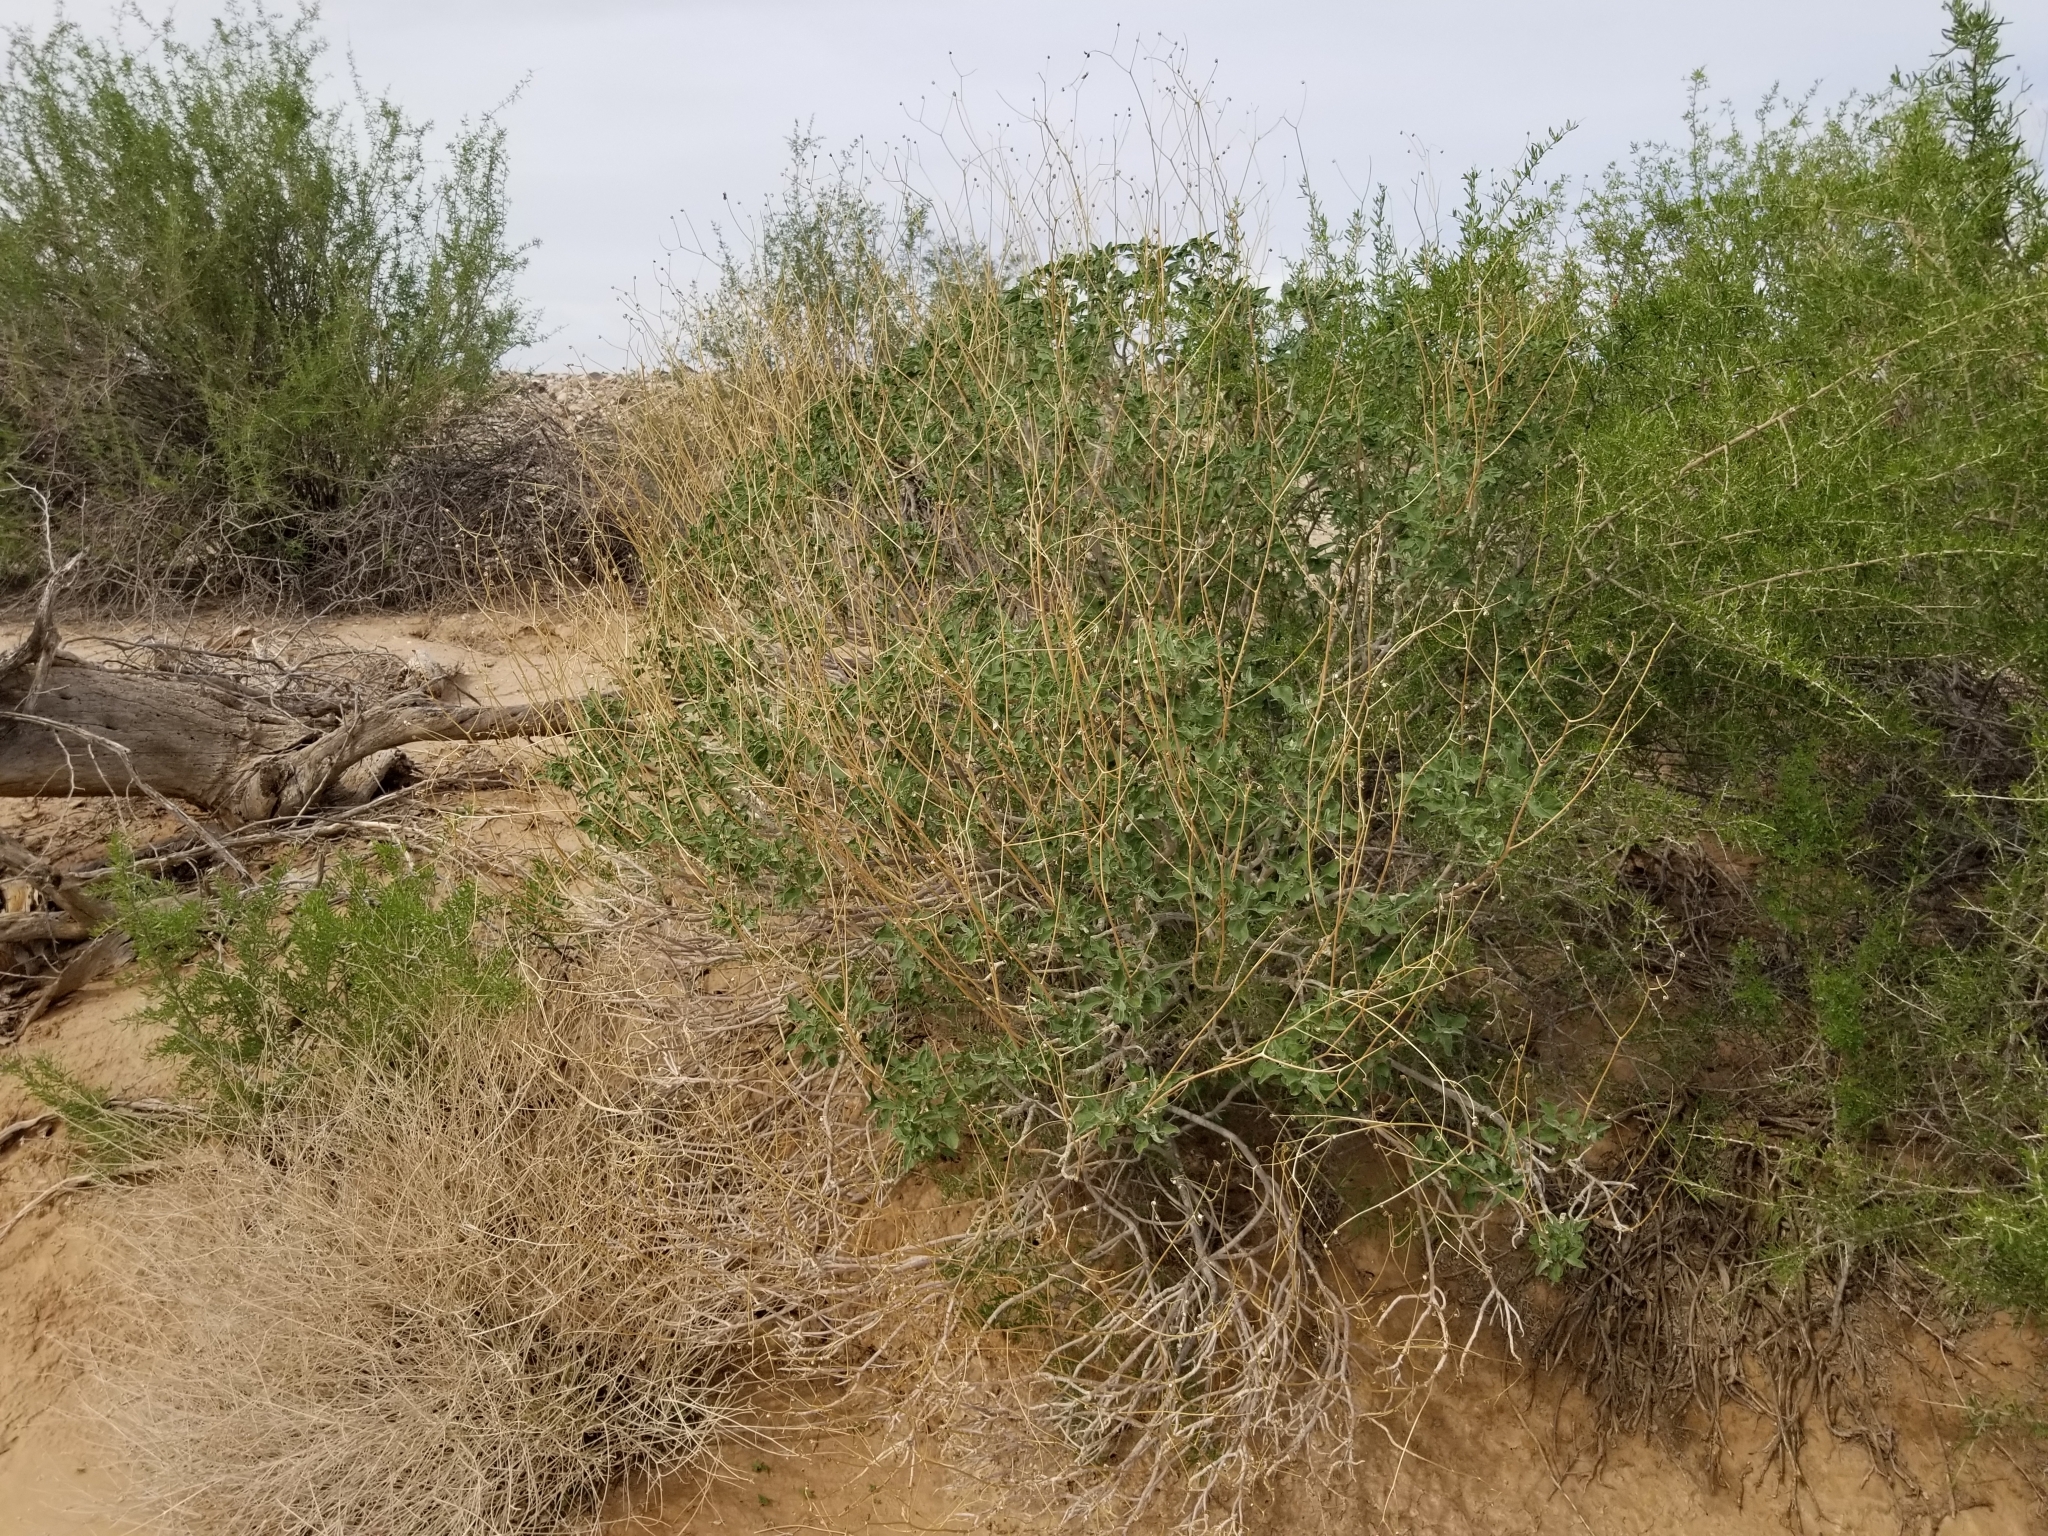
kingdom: Plantae
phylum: Tracheophyta
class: Magnoliopsida
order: Asterales
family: Asteraceae
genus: Encelia
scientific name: Encelia farinosa
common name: Brittlebush
